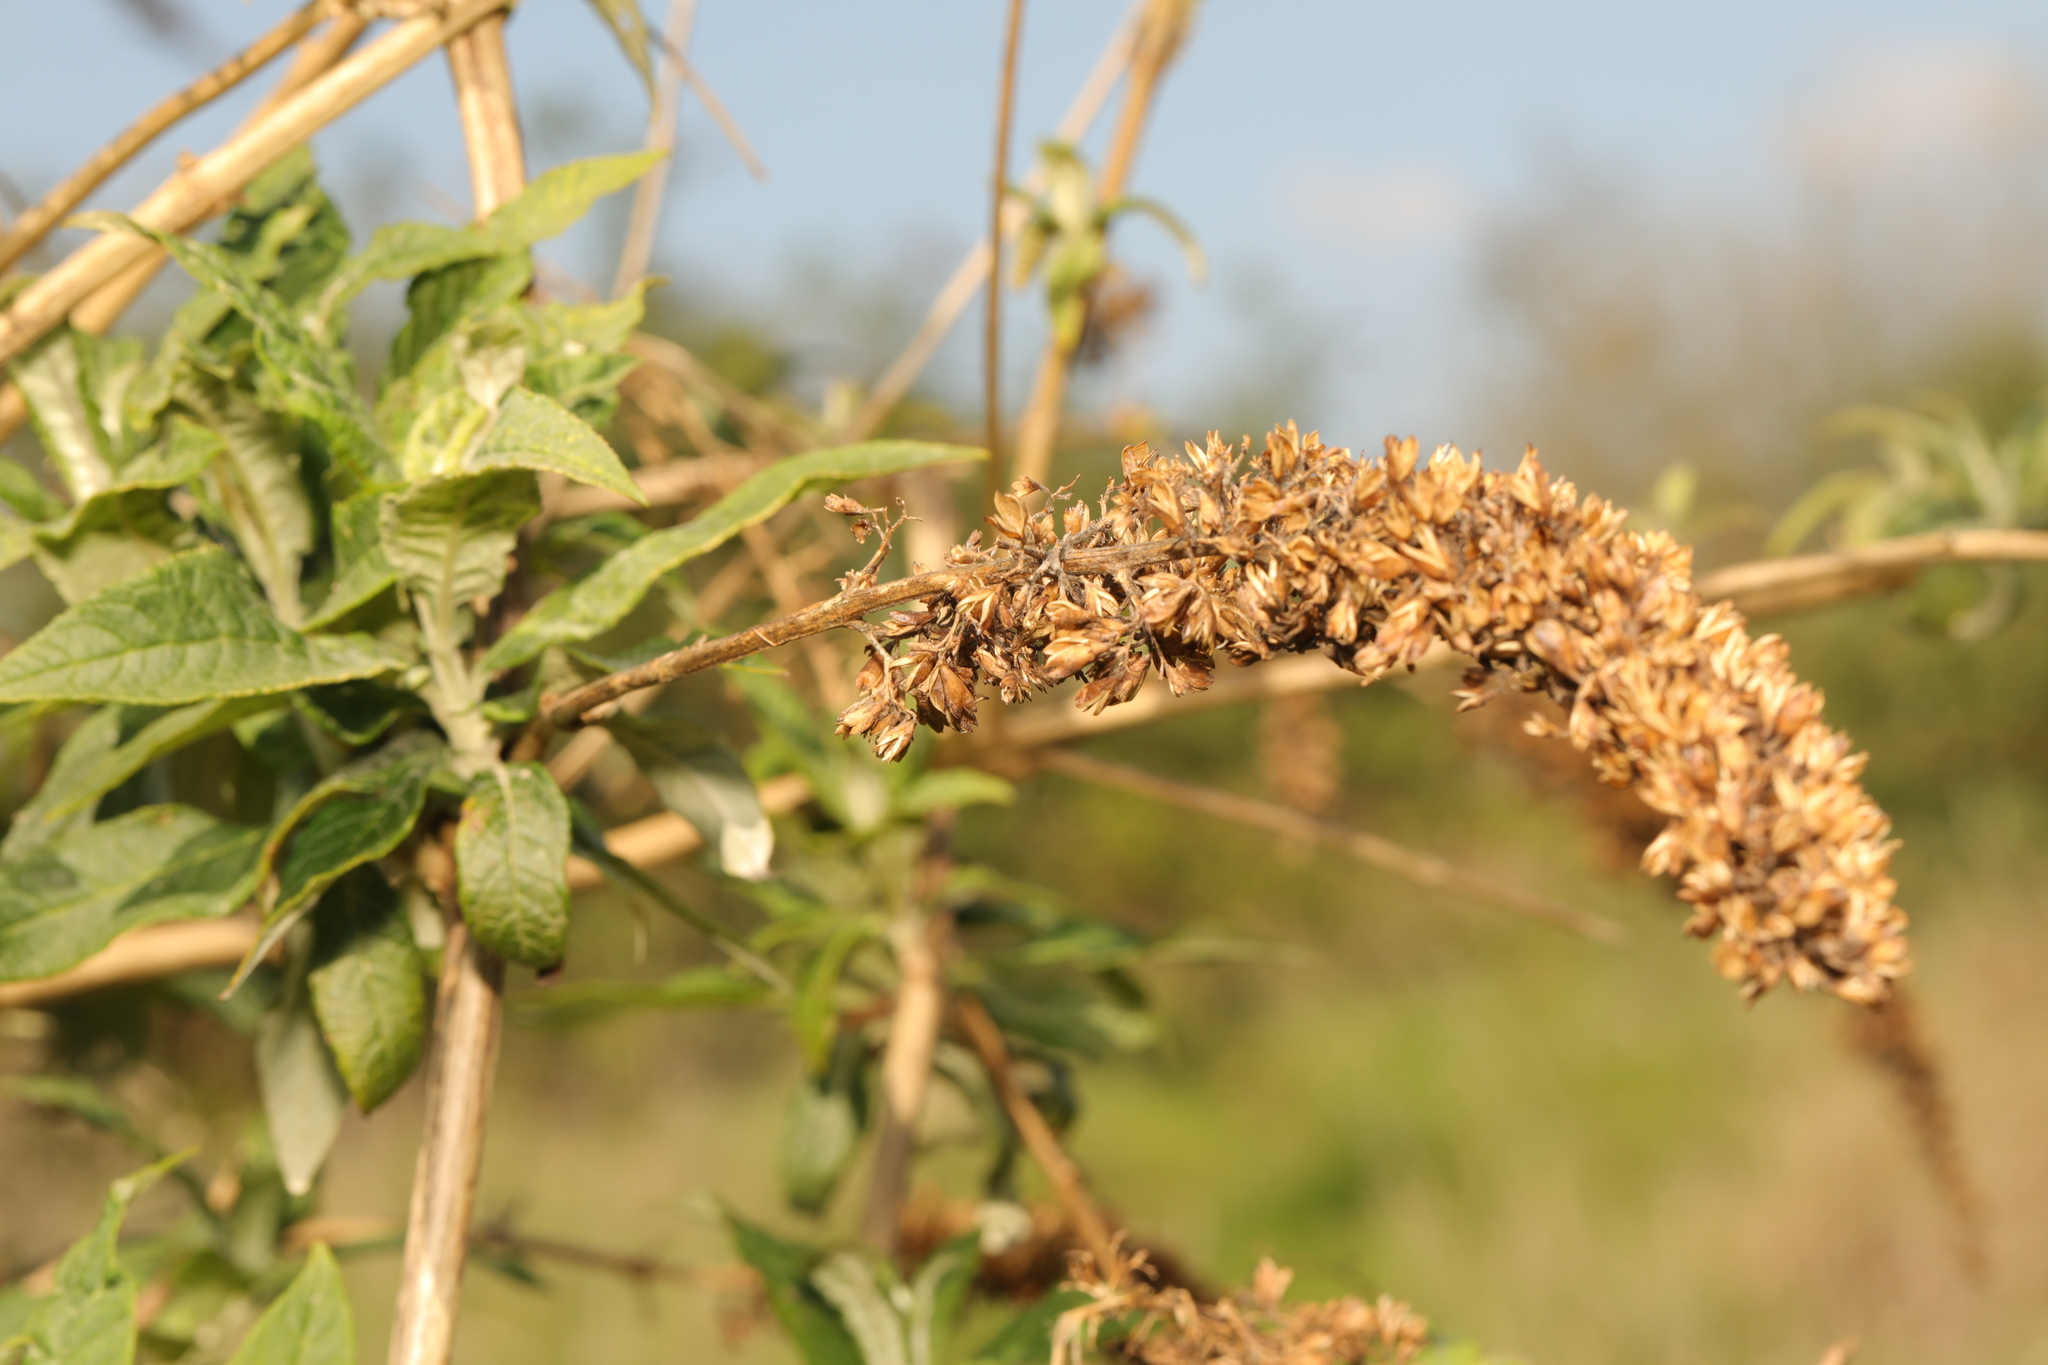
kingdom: Plantae
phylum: Tracheophyta
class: Magnoliopsida
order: Lamiales
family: Scrophulariaceae
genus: Buddleja
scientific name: Buddleja davidii
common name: Butterfly-bush
